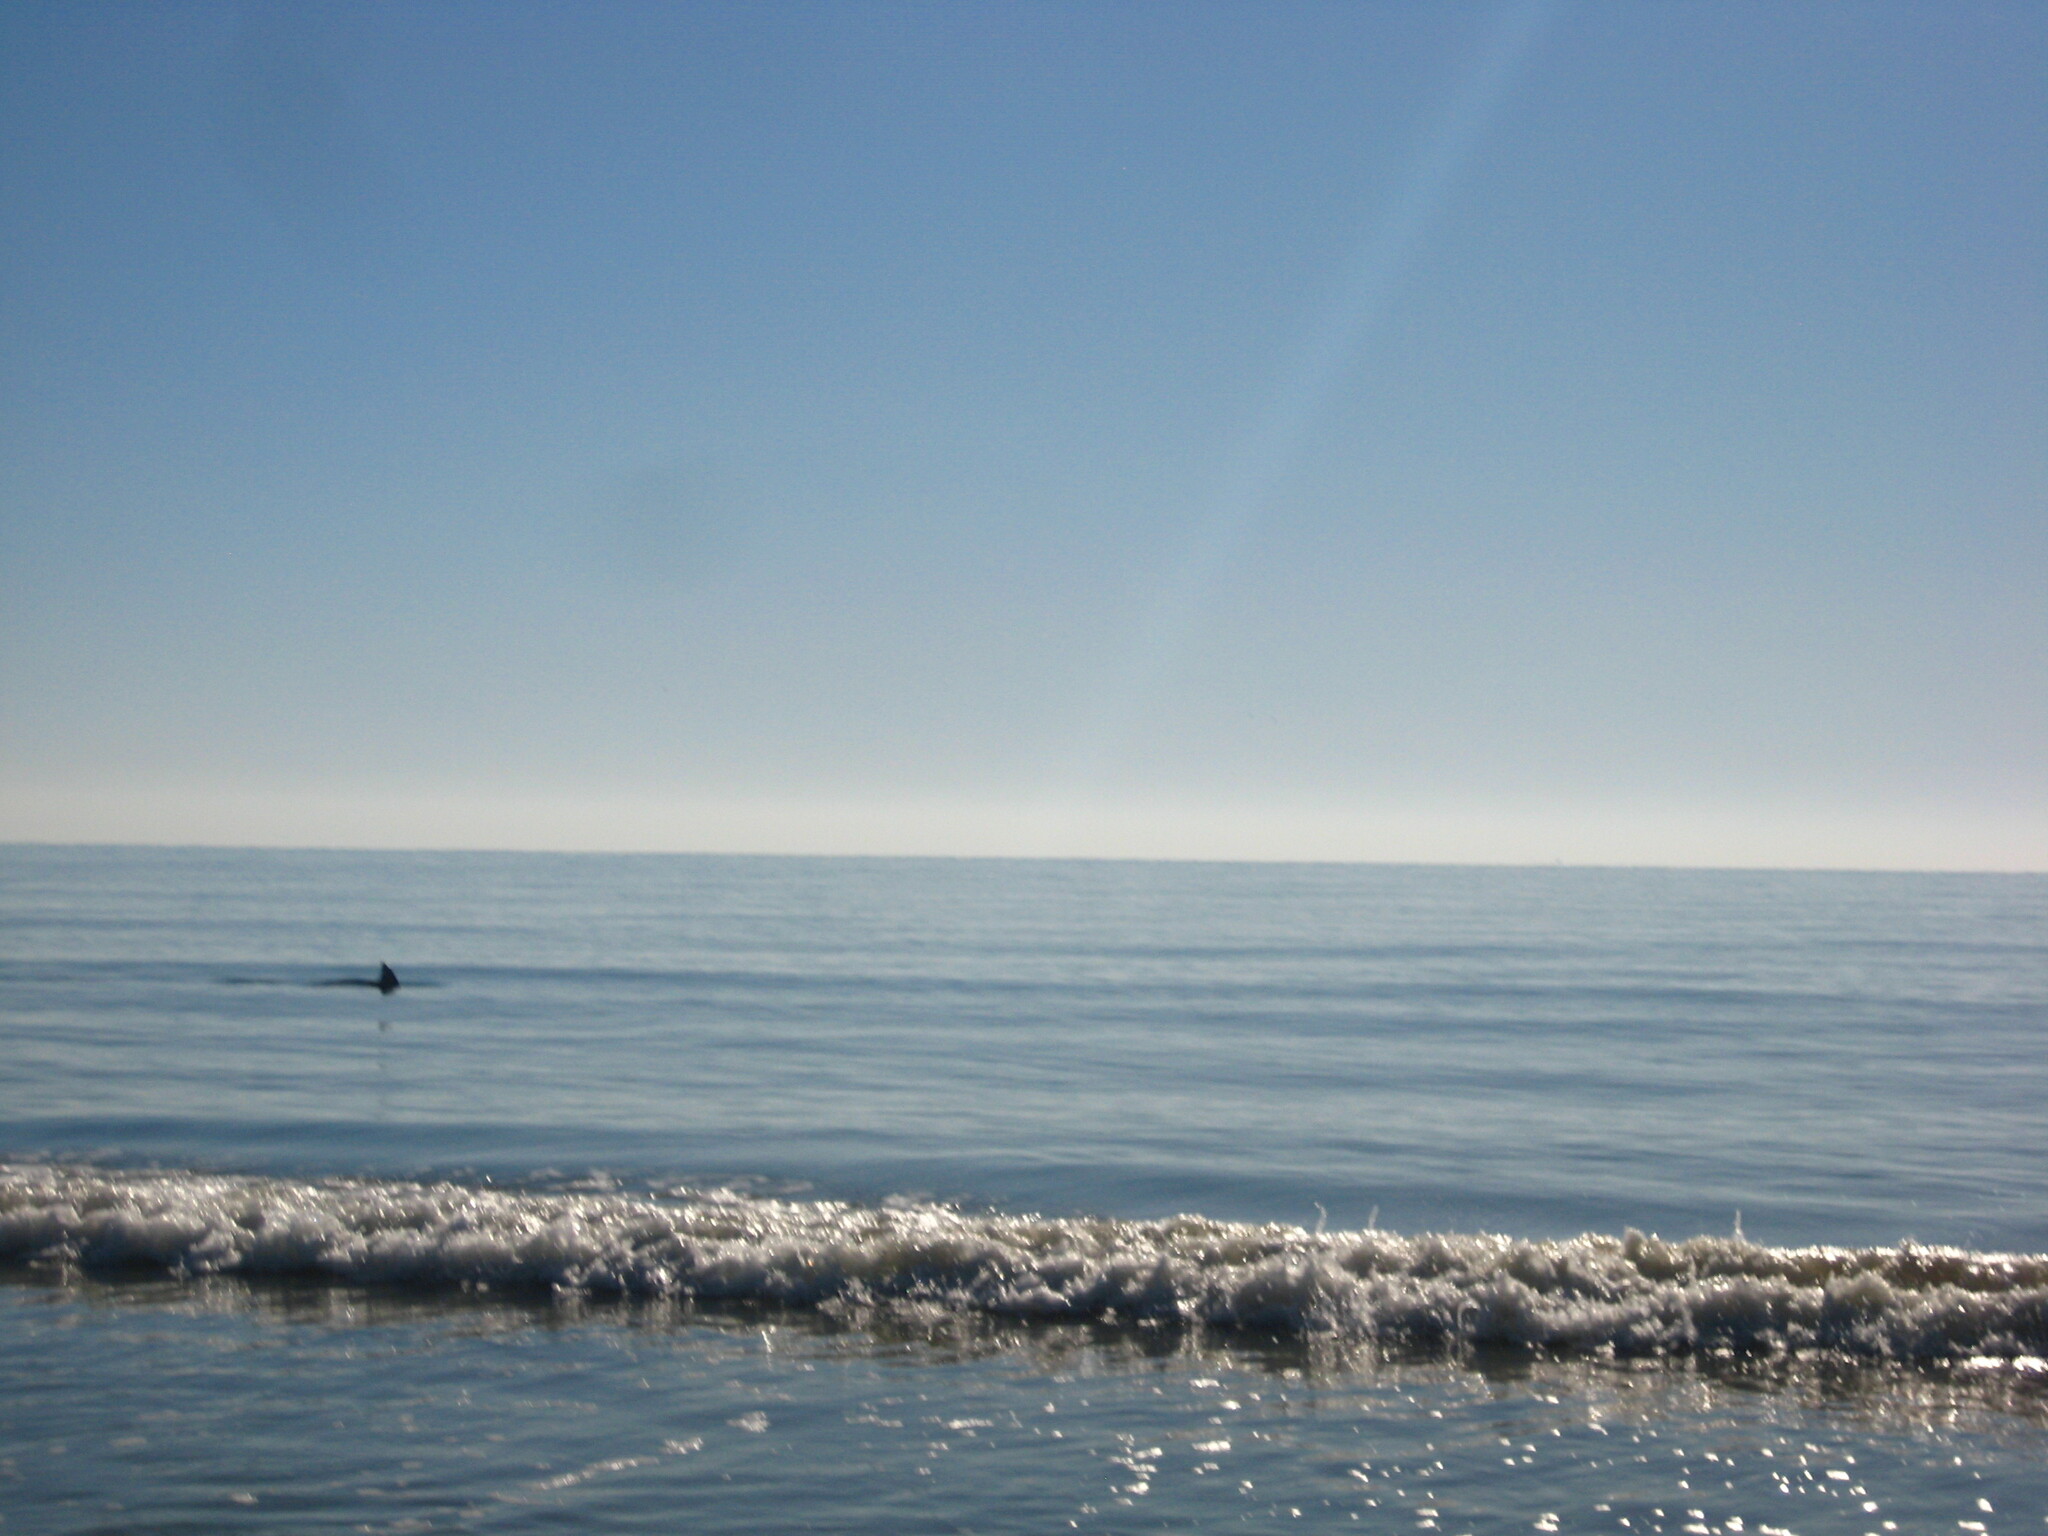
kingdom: Animalia
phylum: Chordata
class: Mammalia
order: Cetacea
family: Delphinidae
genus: Tursiops
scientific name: Tursiops truncatus
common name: Bottlenose dolphin
